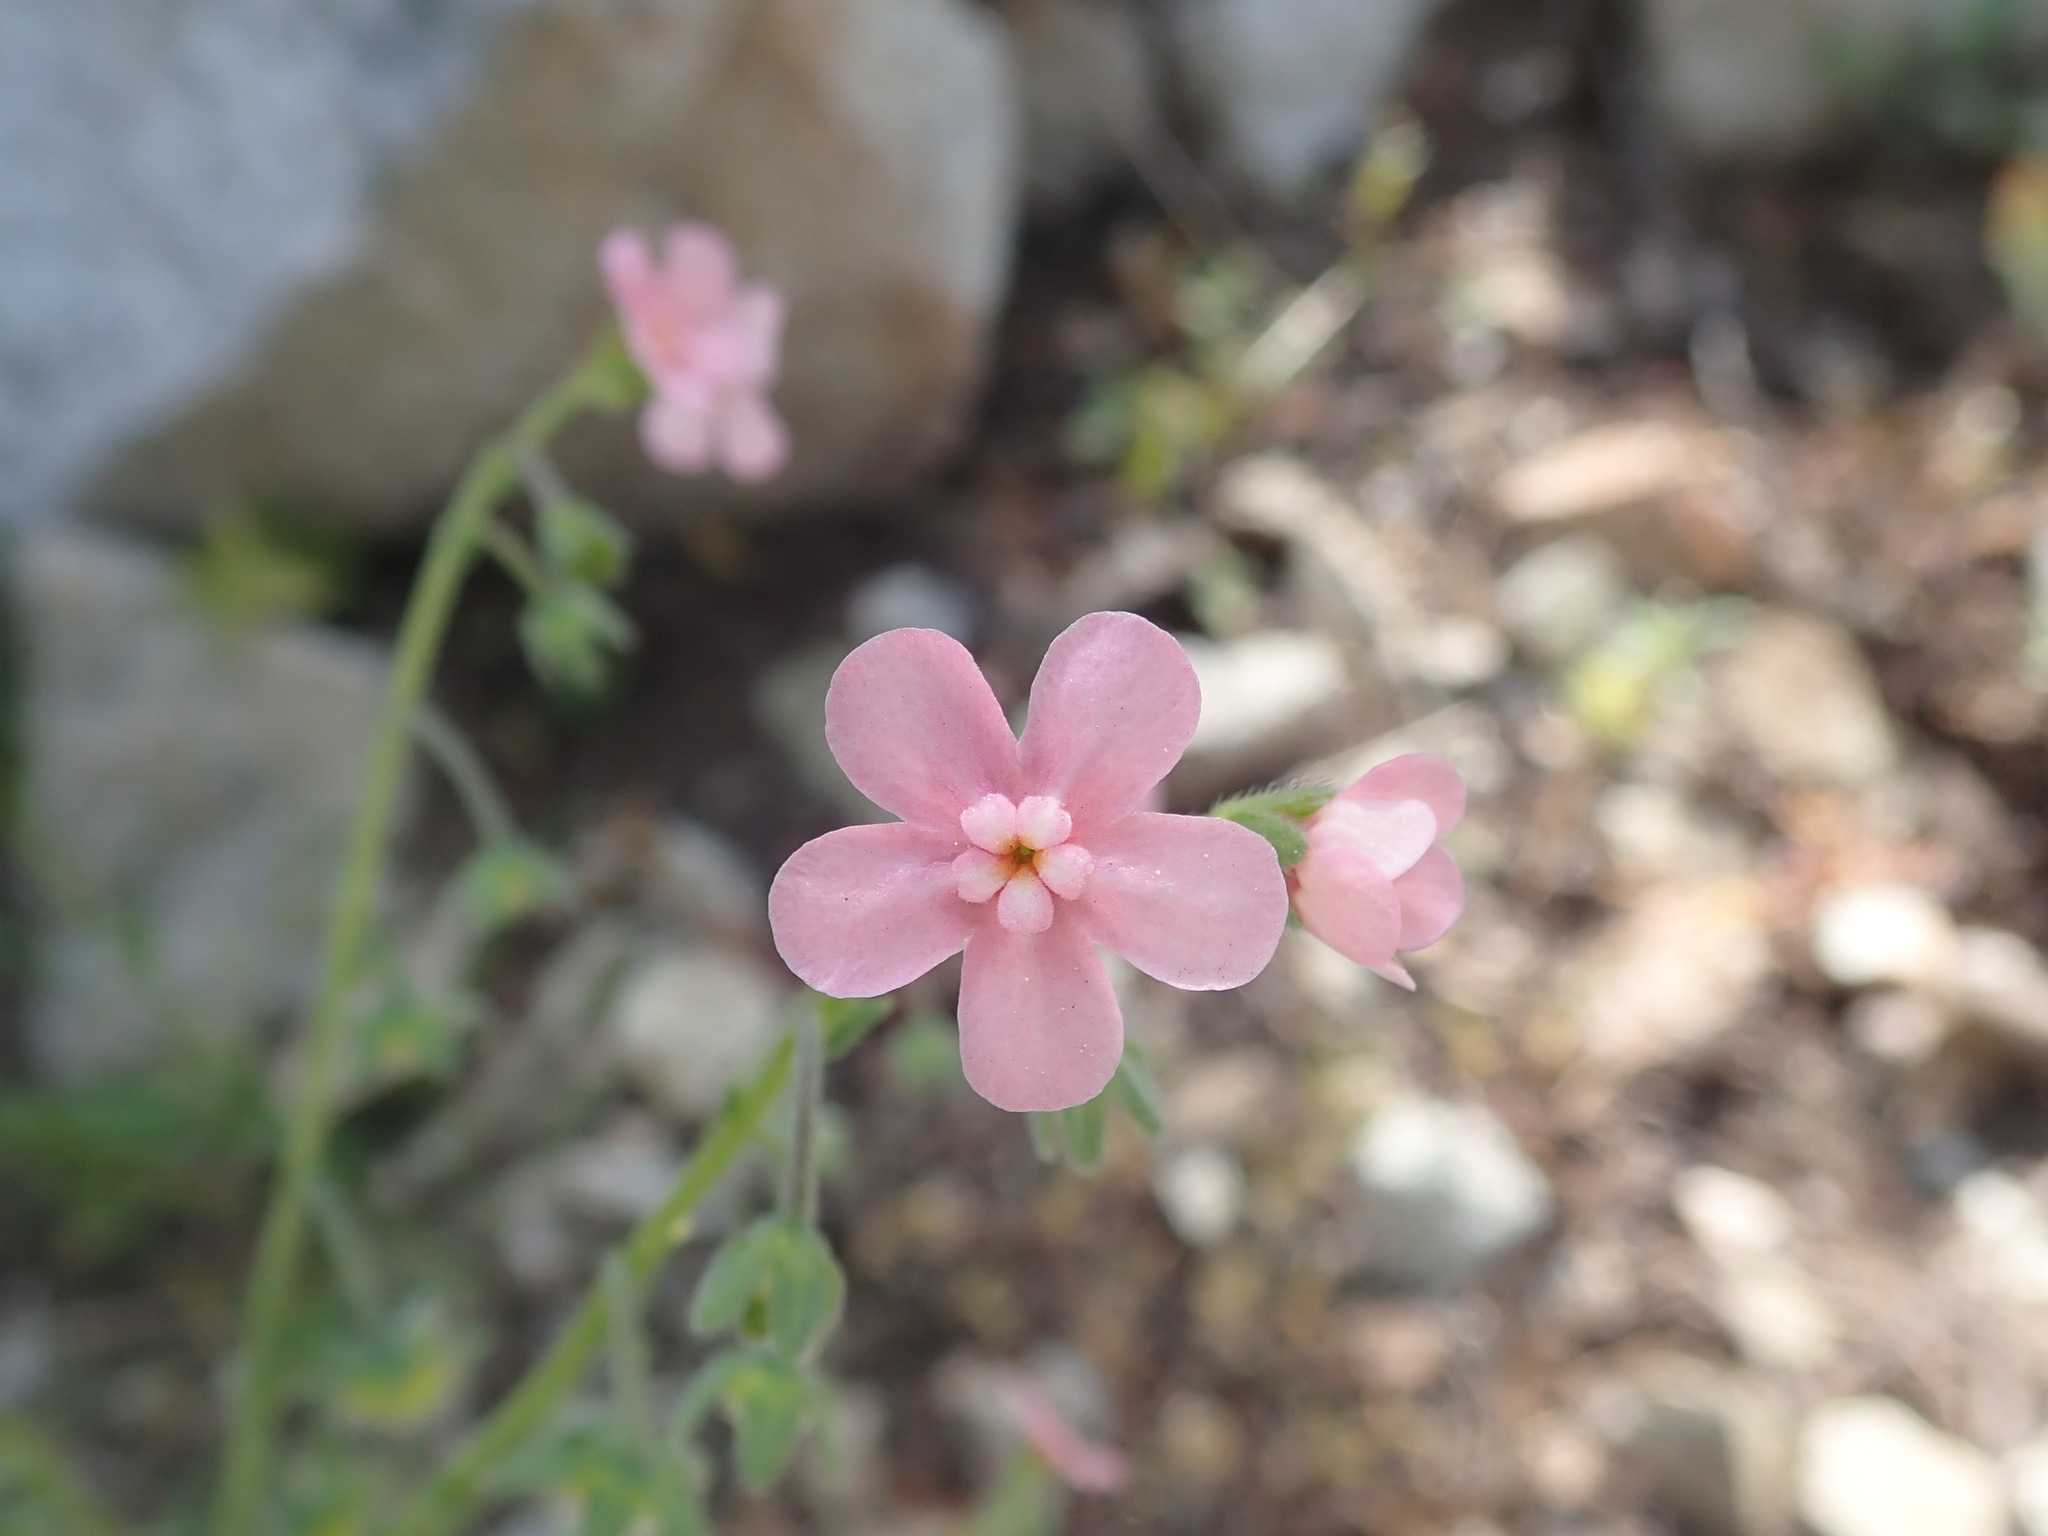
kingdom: Plantae
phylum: Tracheophyta
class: Magnoliopsida
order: Boraginales
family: Boraginaceae
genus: Hackelia
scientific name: Hackelia mundula
